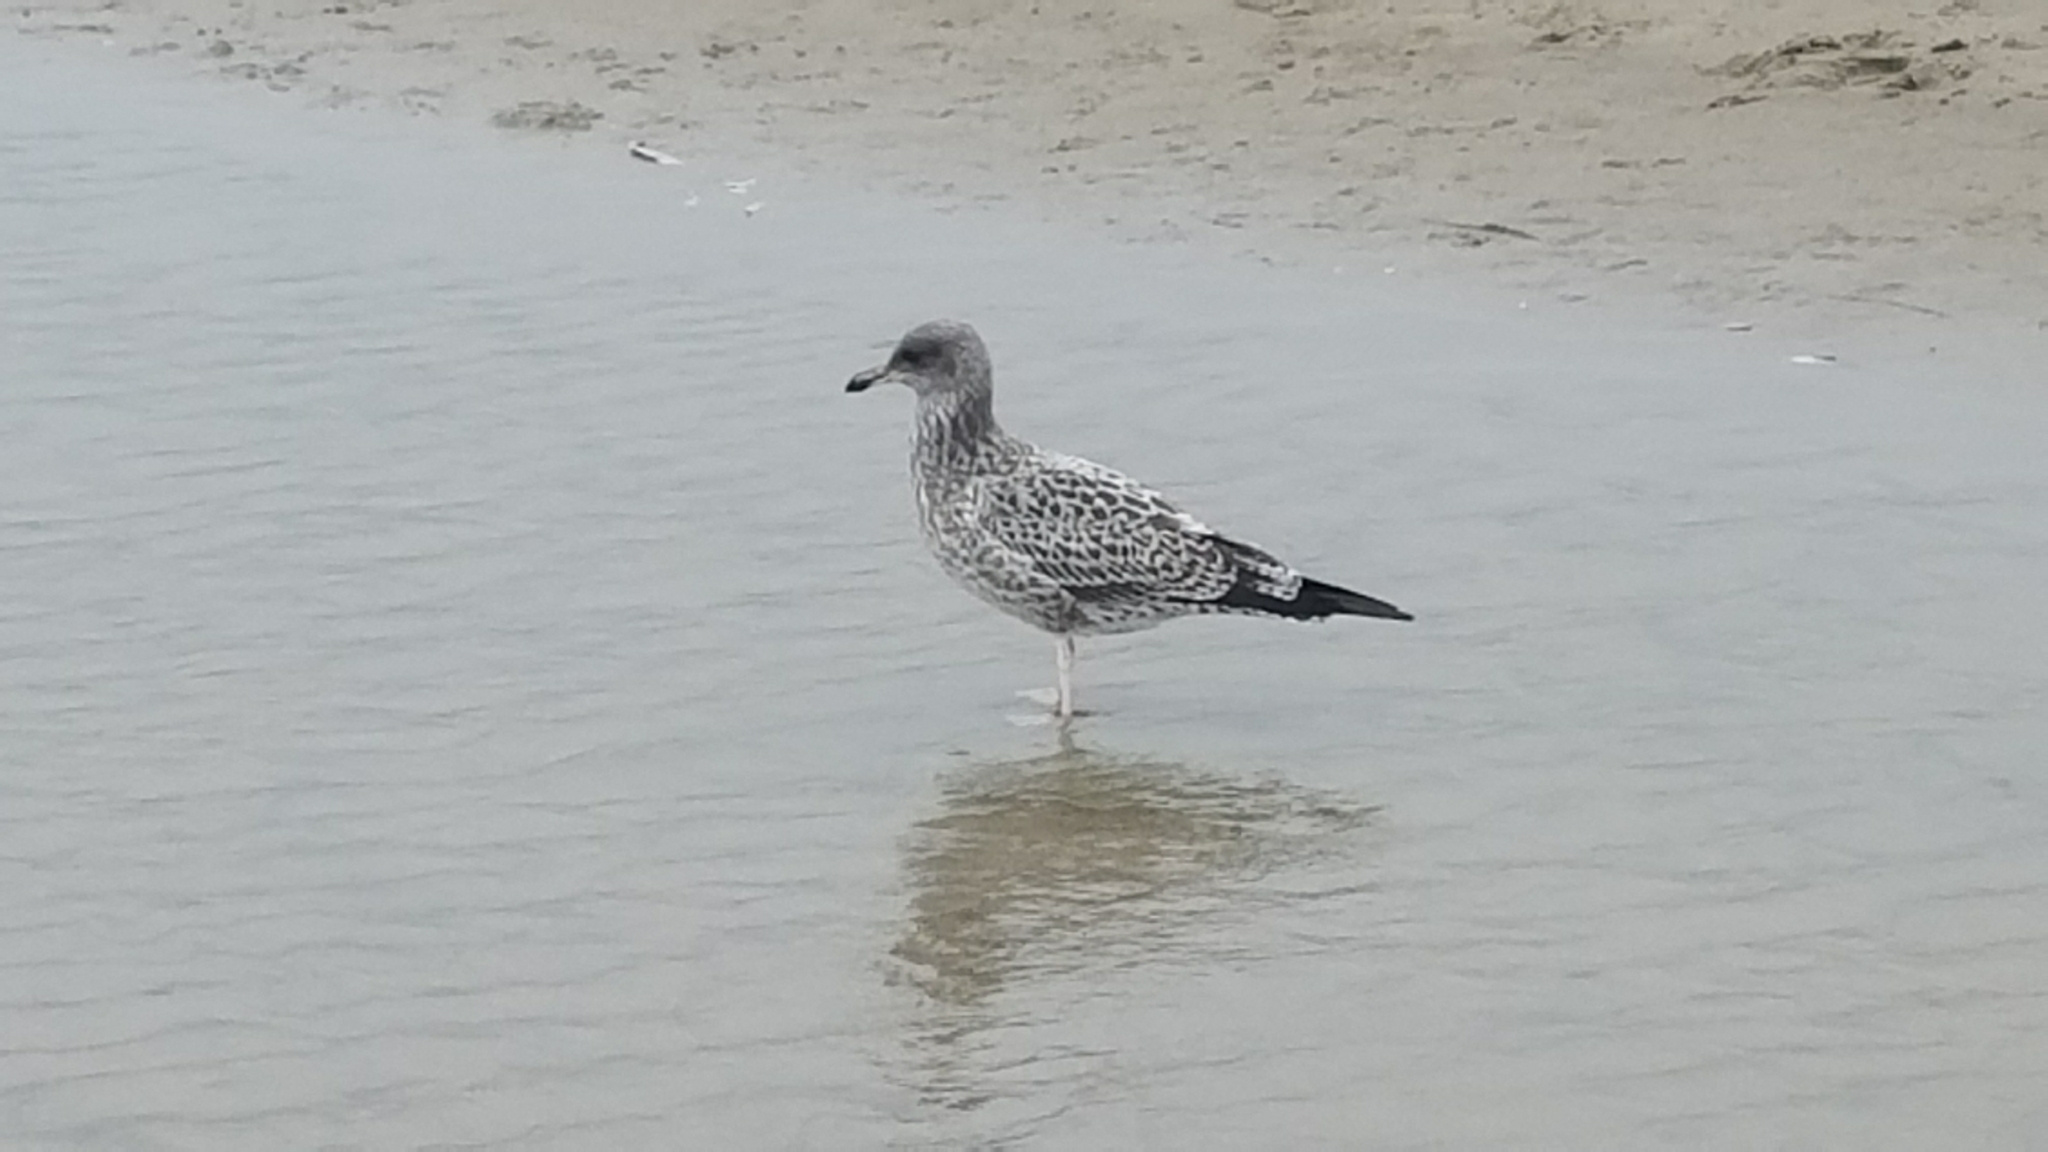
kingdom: Animalia
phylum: Chordata
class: Aves
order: Charadriiformes
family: Laridae
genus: Larus
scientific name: Larus californicus
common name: California gull
